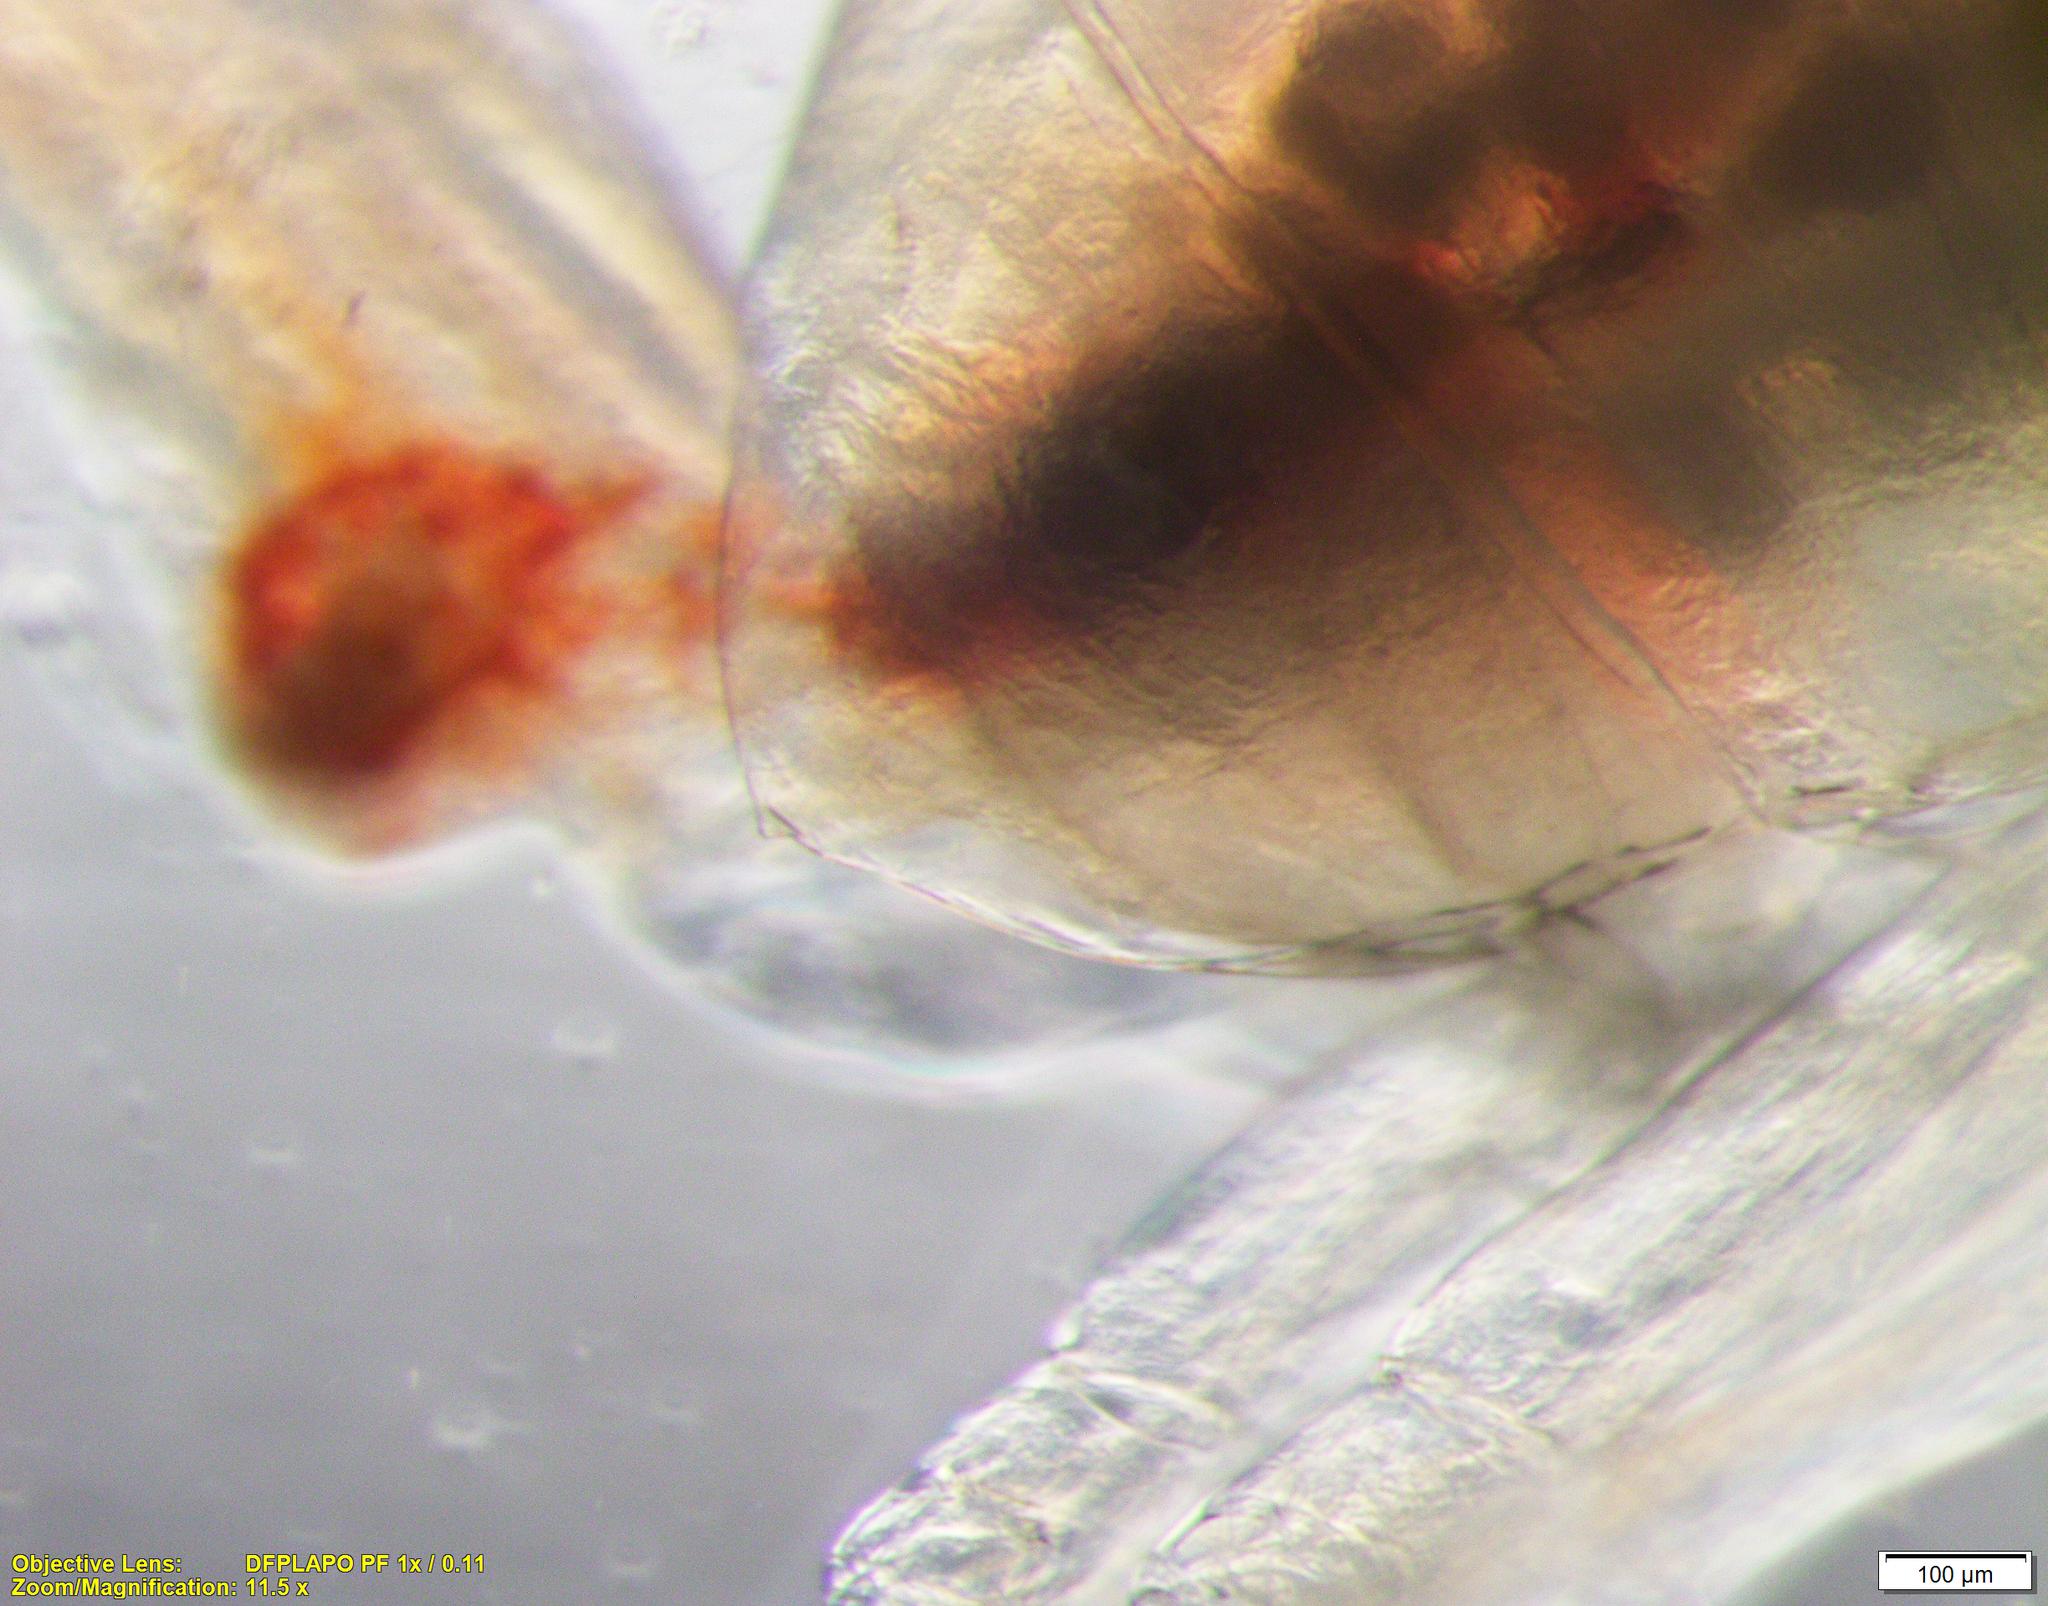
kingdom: Animalia
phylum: Arthropoda
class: Copepoda
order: Calanoida
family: Calanidae
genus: Calanus
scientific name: Calanus hyperboreus
